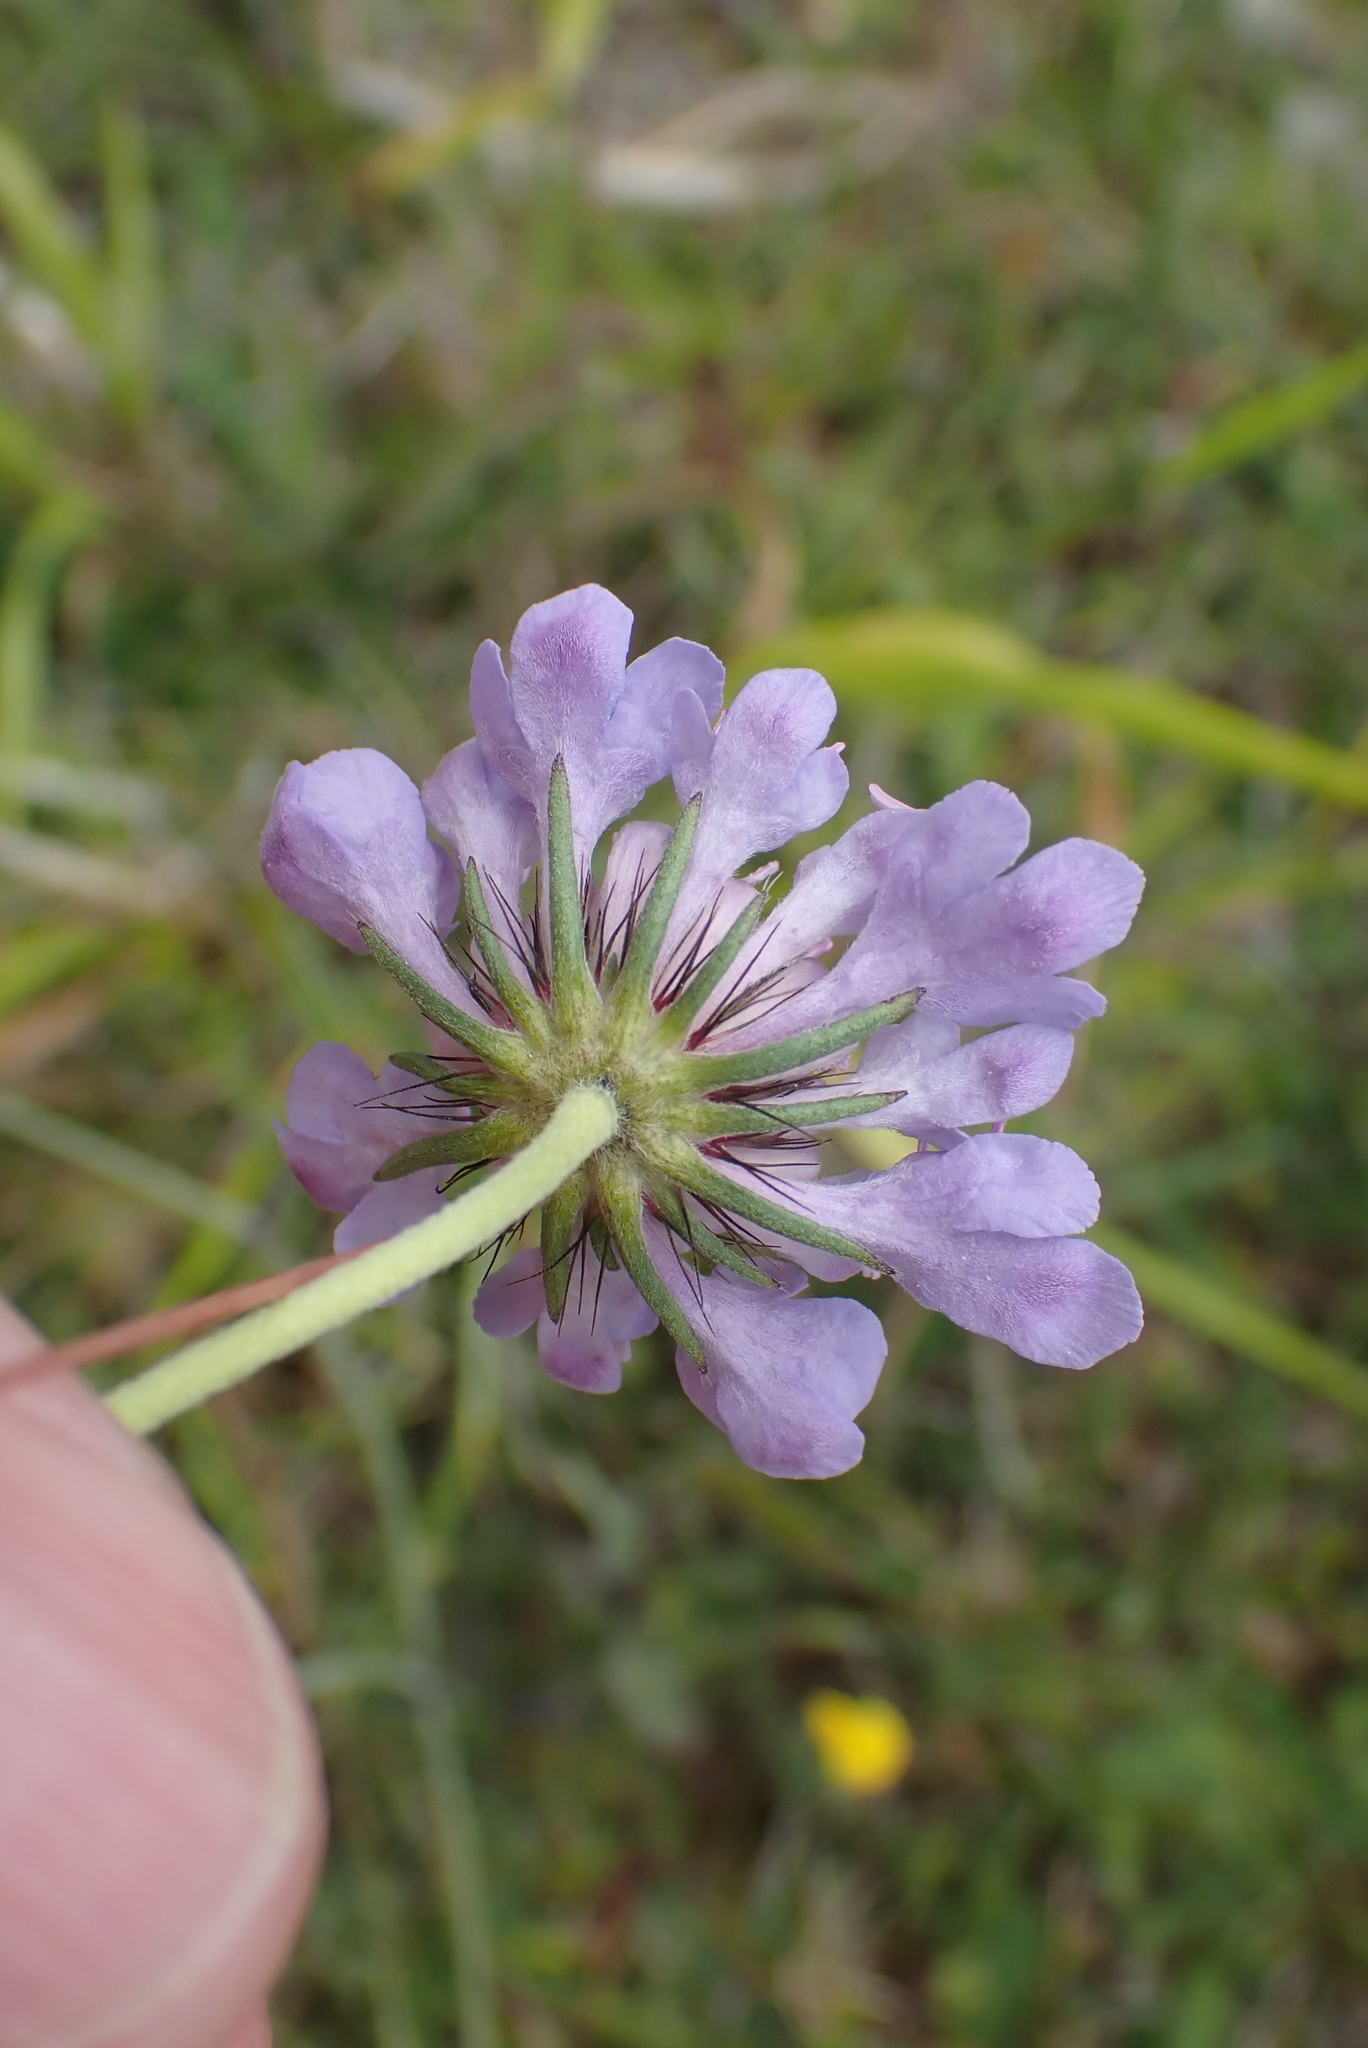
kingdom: Plantae
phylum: Tracheophyta
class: Magnoliopsida
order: Dipsacales
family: Caprifoliaceae
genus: Scabiosa
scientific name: Scabiosa columbaria
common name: Small scabious
